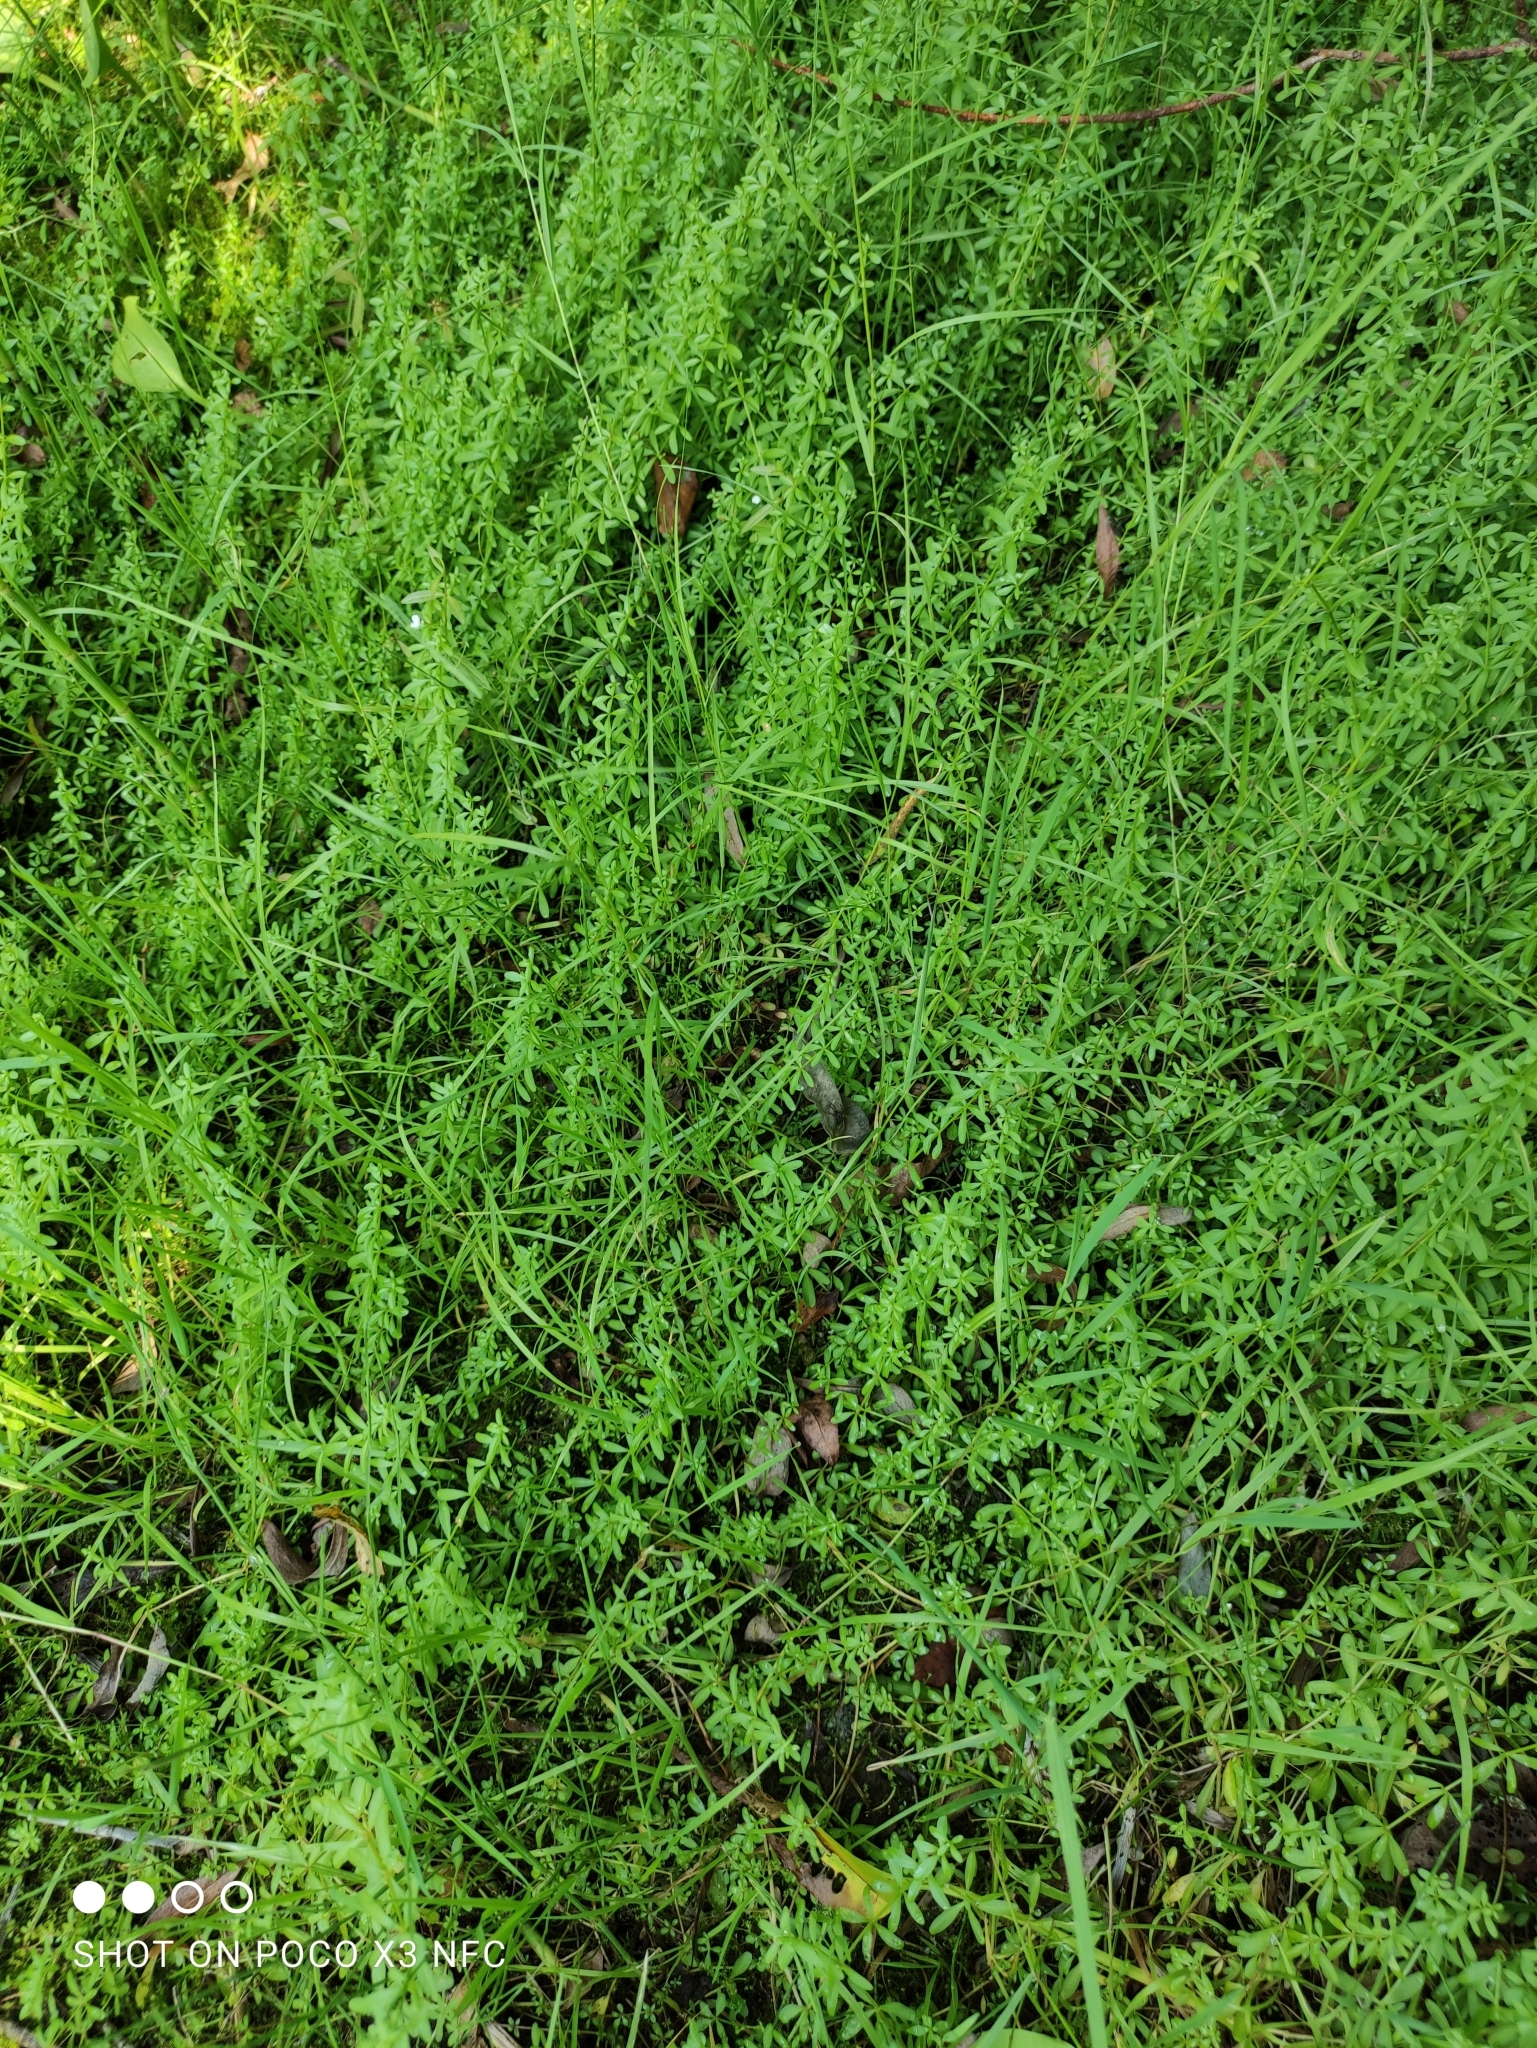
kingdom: Plantae
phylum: Tracheophyta
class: Magnoliopsida
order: Gentianales
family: Rubiaceae
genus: Galium
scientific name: Galium palustre
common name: Common marsh-bedstraw
